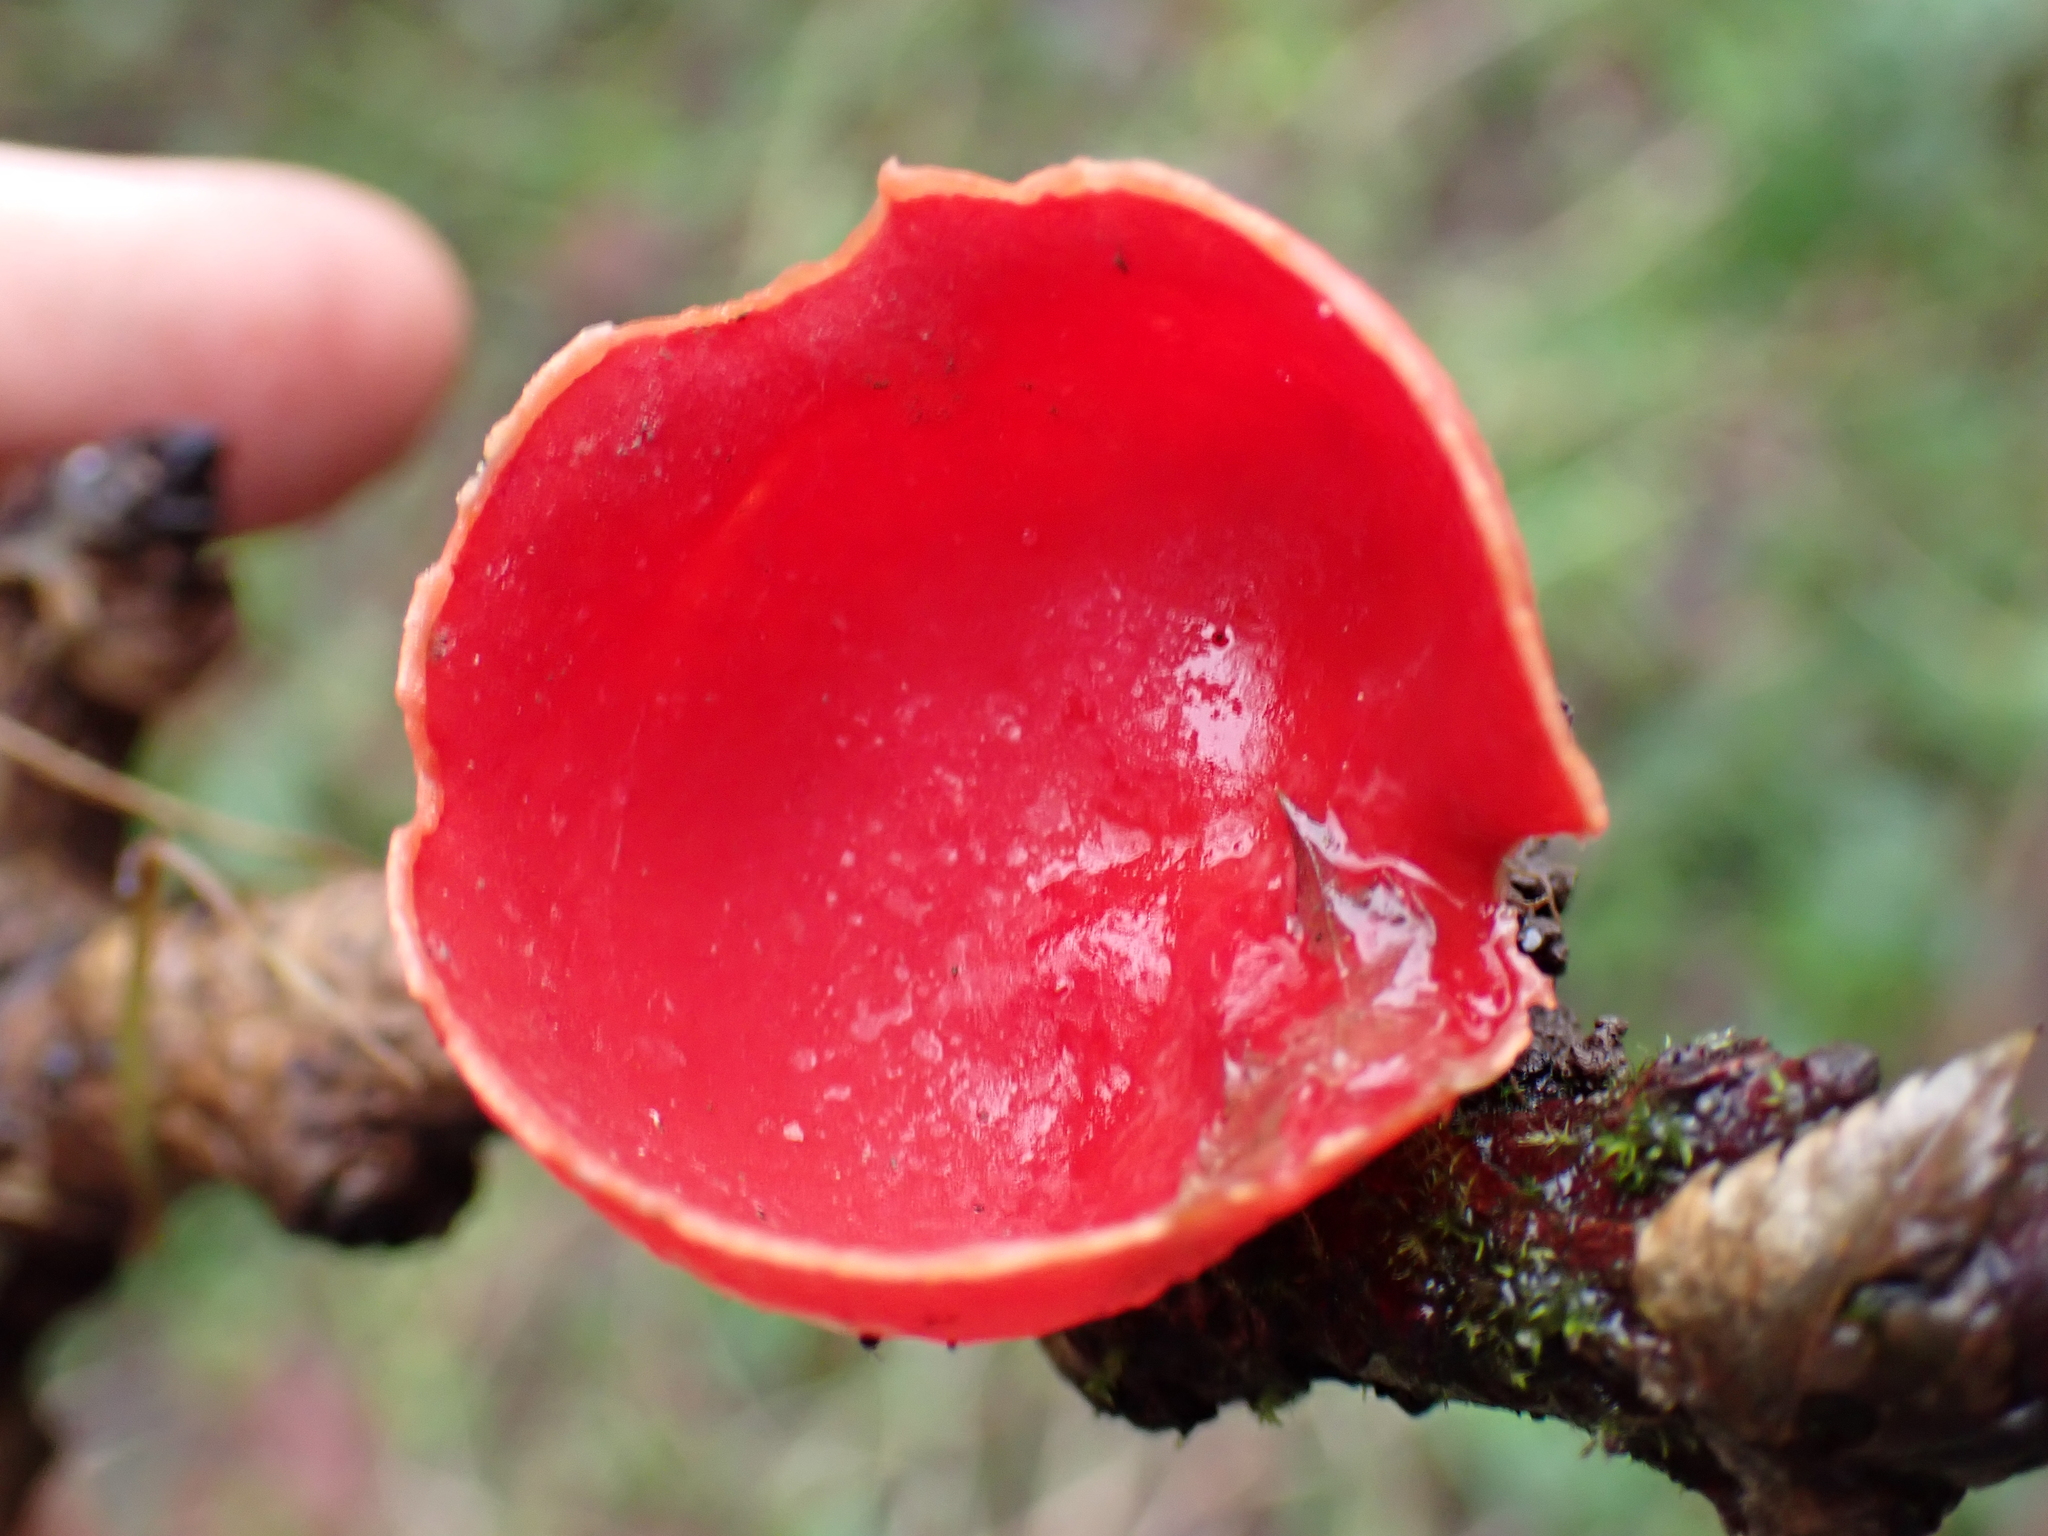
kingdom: Fungi
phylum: Ascomycota
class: Pezizomycetes
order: Pezizales
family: Sarcoscyphaceae
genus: Sarcoscypha
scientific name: Sarcoscypha
